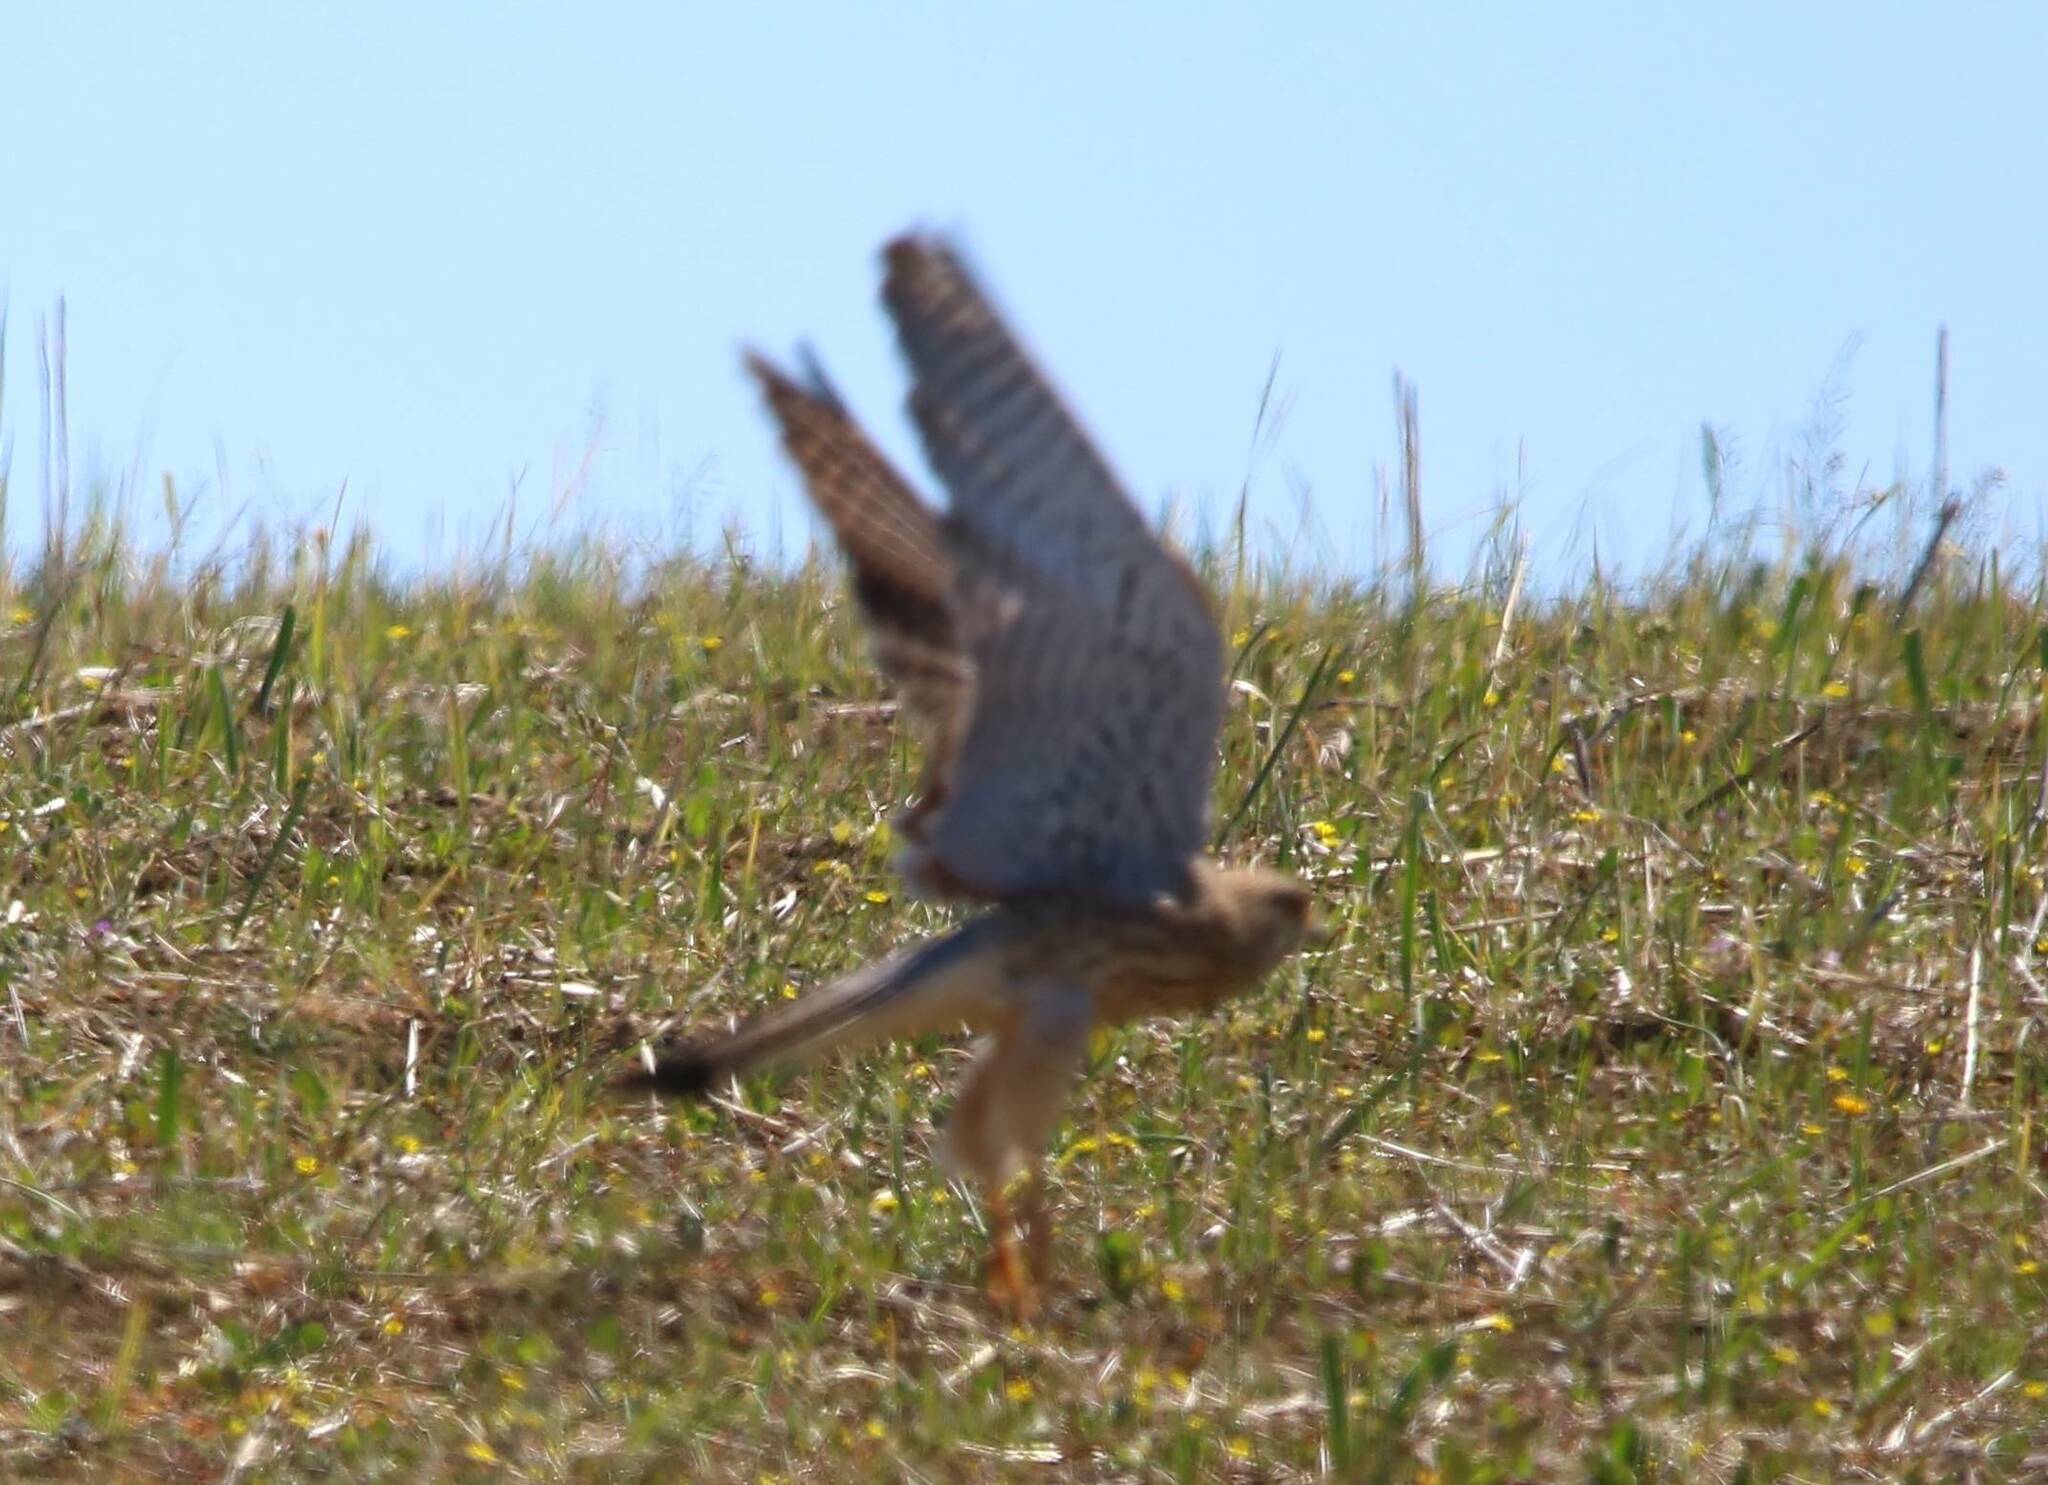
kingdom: Animalia
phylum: Chordata
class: Aves
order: Falconiformes
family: Falconidae
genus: Falco
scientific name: Falco tinnunculus
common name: Common kestrel
